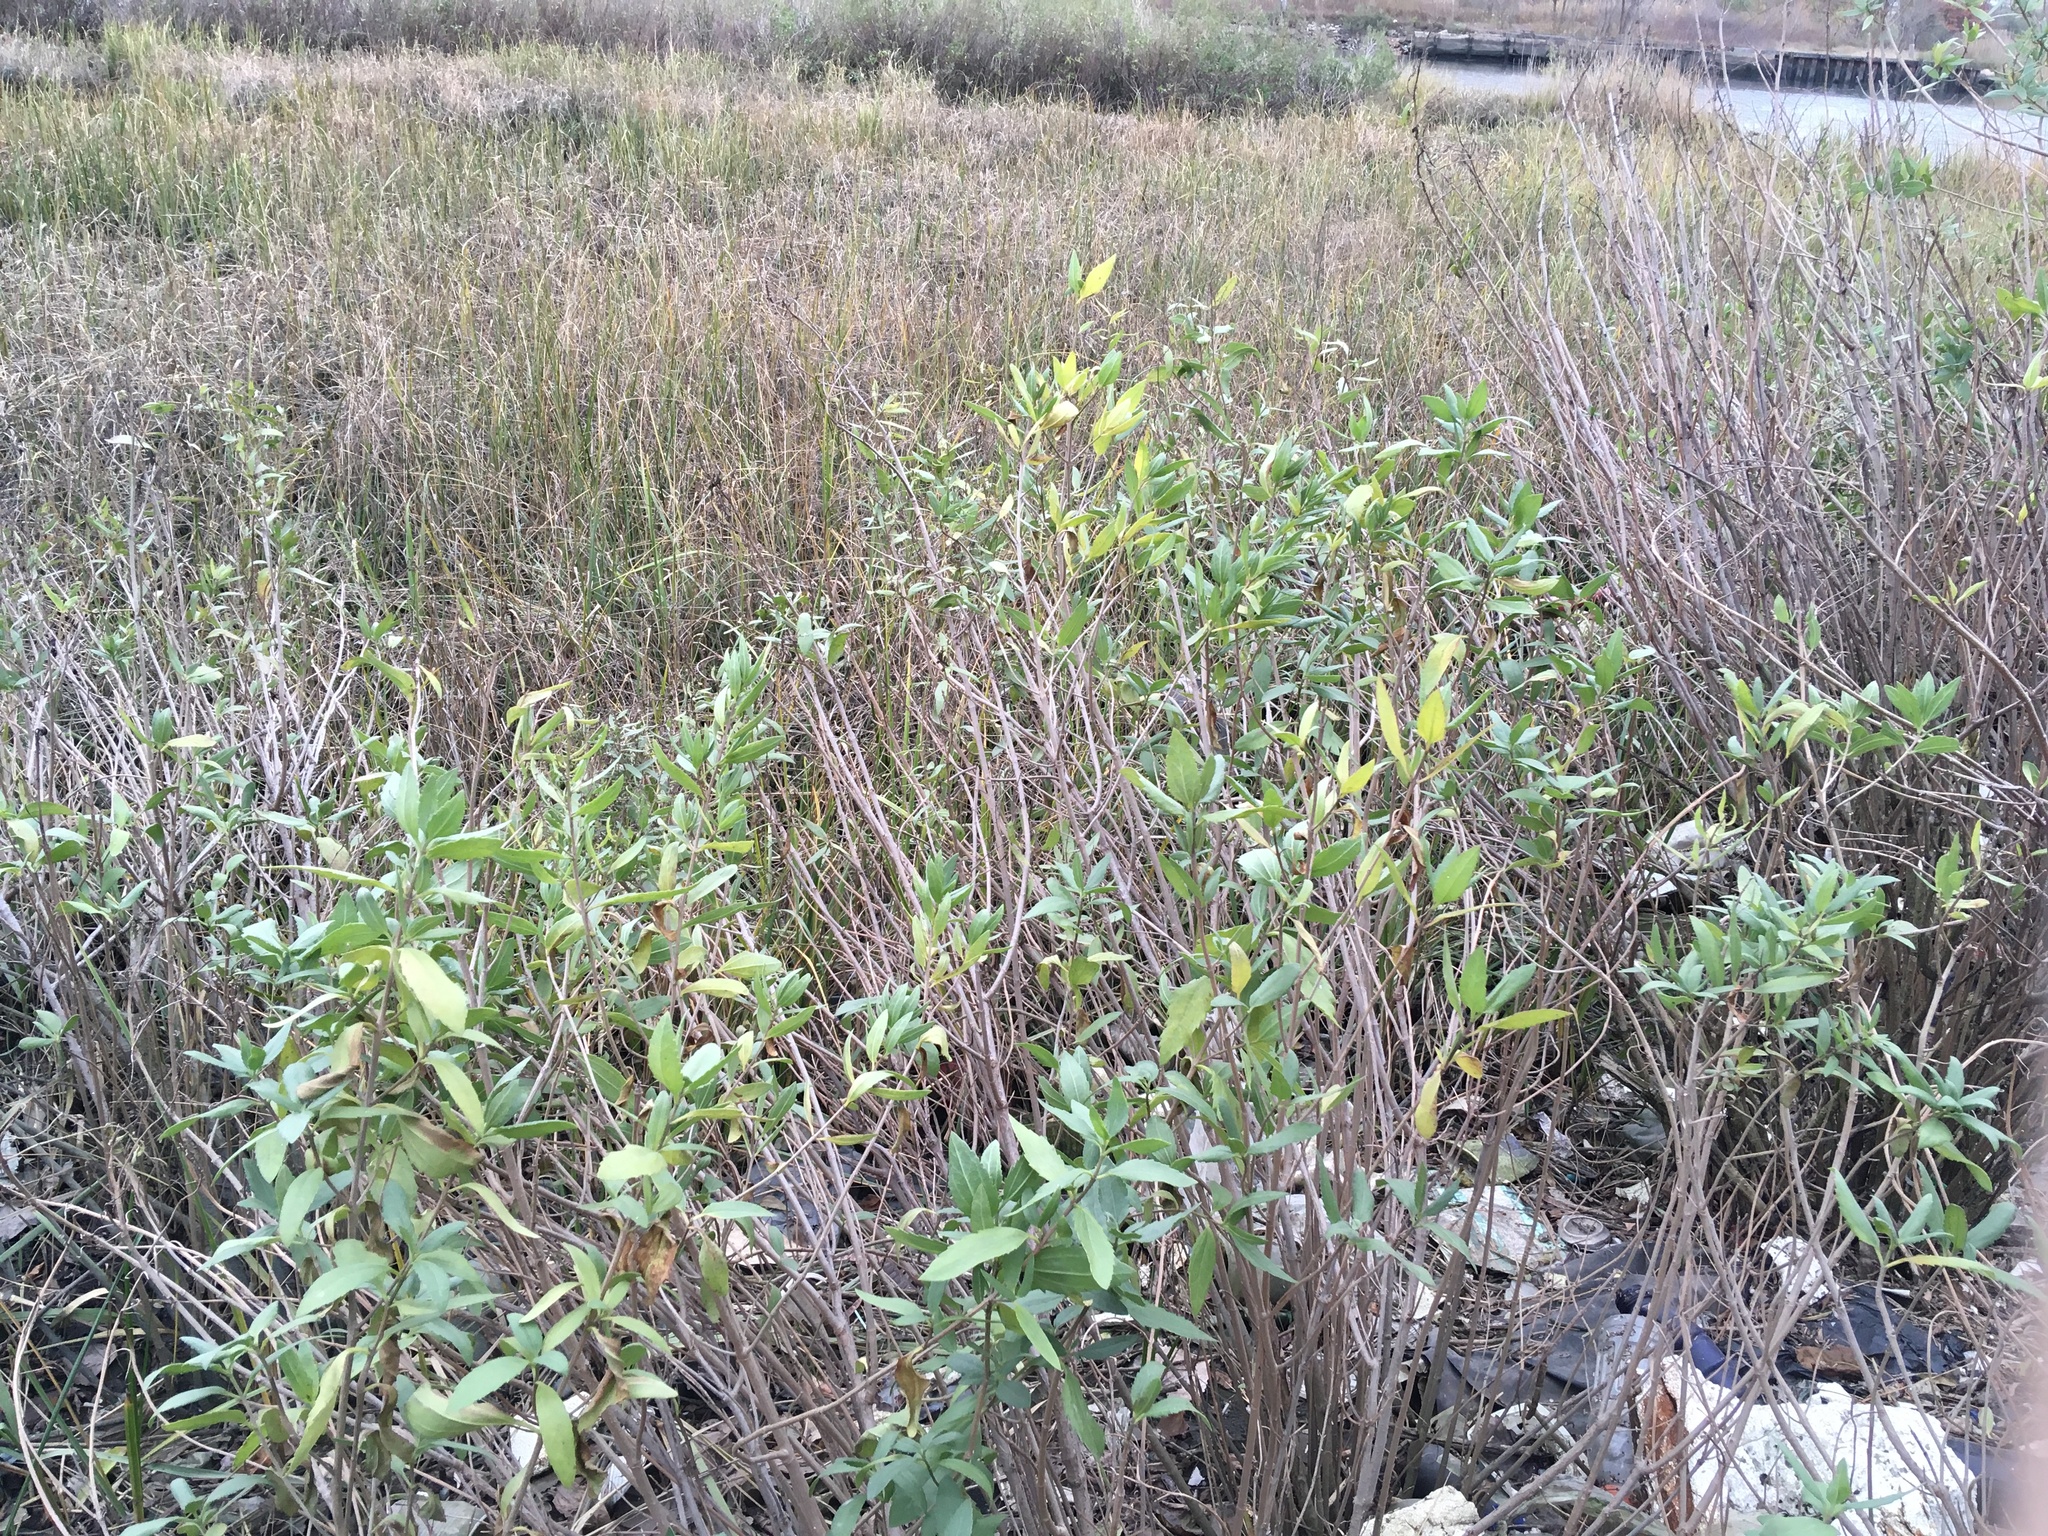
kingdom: Plantae
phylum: Tracheophyta
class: Magnoliopsida
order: Asterales
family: Asteraceae
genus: Iva
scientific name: Iva frutescens
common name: Big-leaved marsh-elder
